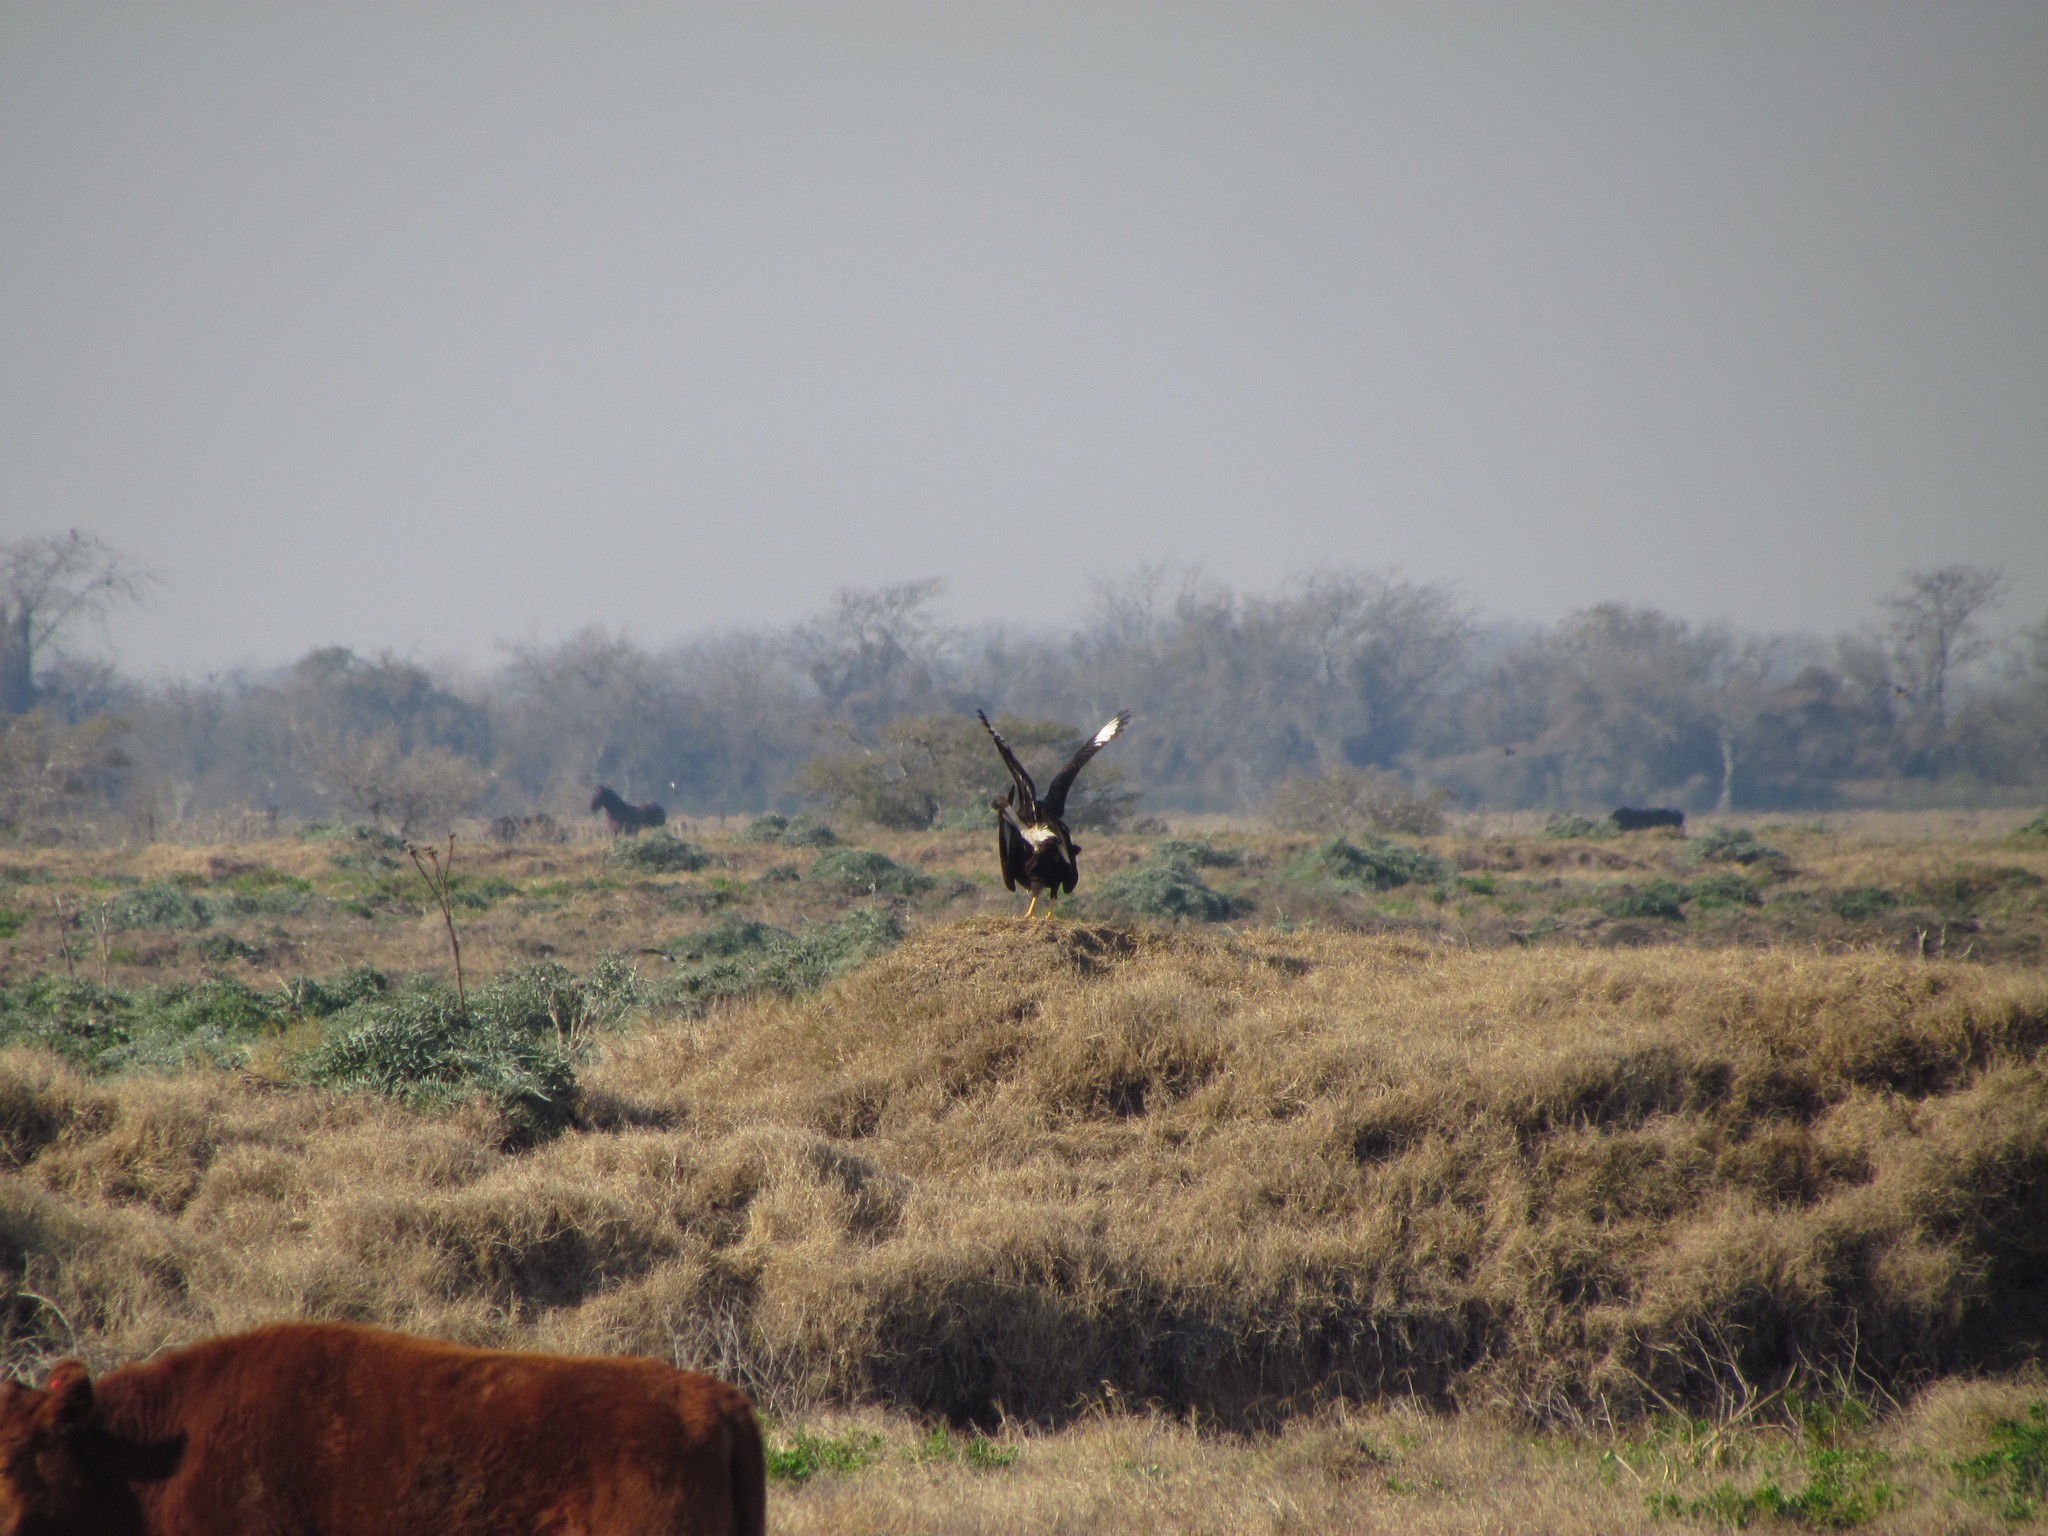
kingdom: Animalia
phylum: Chordata
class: Aves
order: Falconiformes
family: Falconidae
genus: Caracara
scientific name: Caracara plancus
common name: Southern caracara
